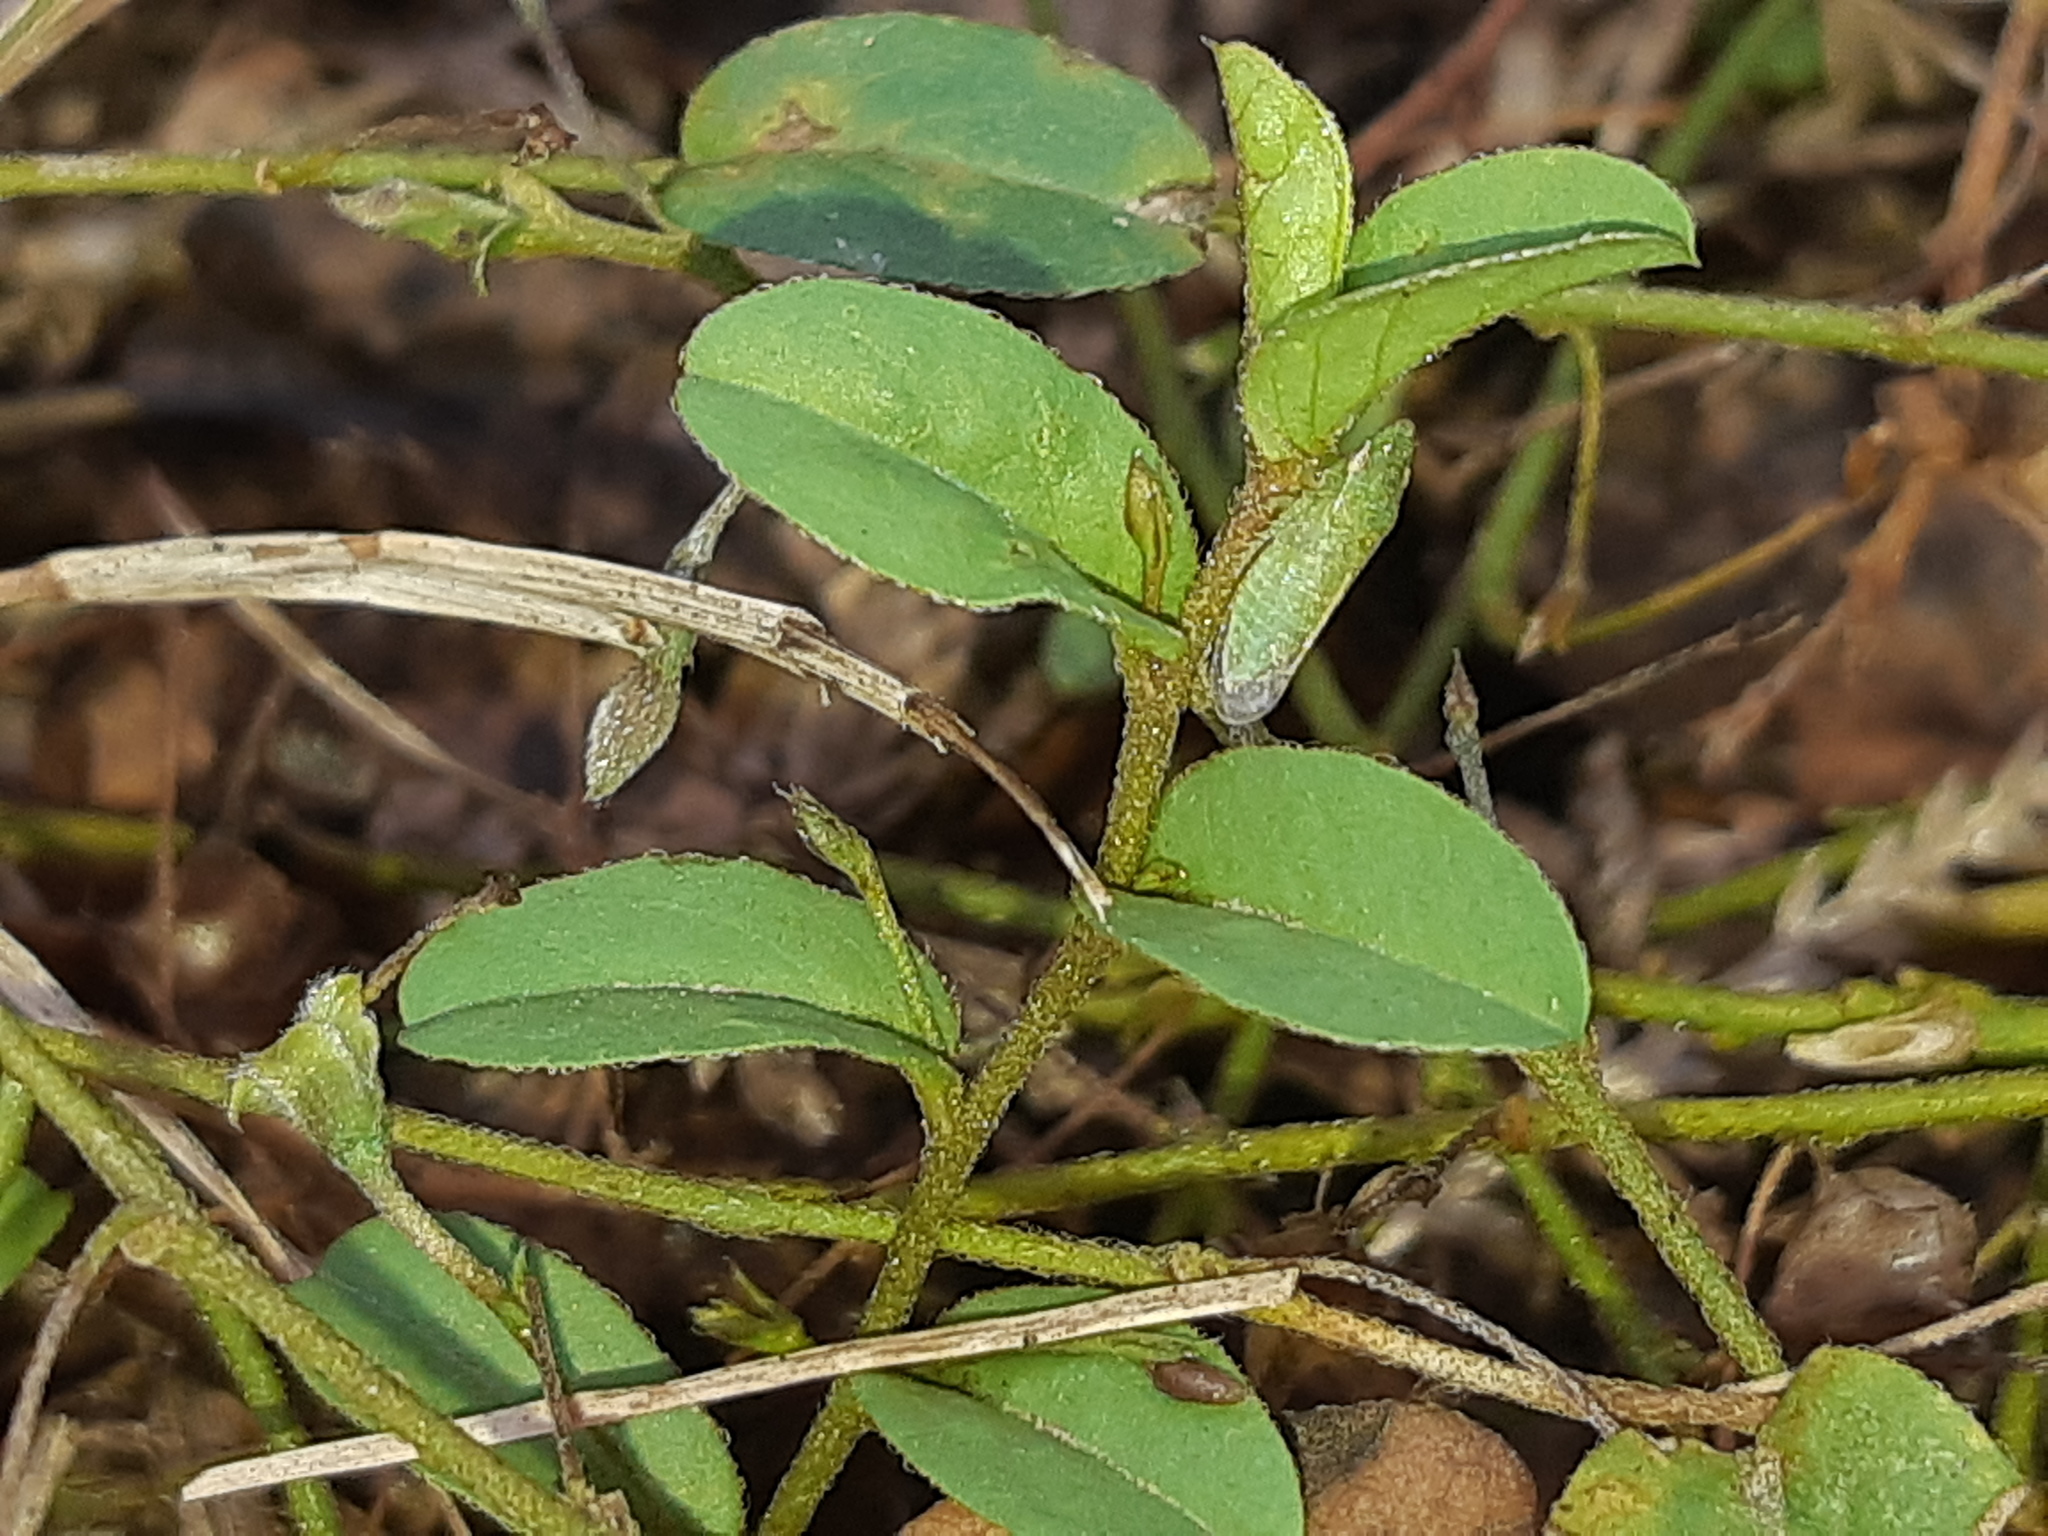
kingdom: Plantae
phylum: Tracheophyta
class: Magnoliopsida
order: Solanales
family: Convolvulaceae
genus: Evolvulus
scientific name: Evolvulus sericeus
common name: Blue dots
